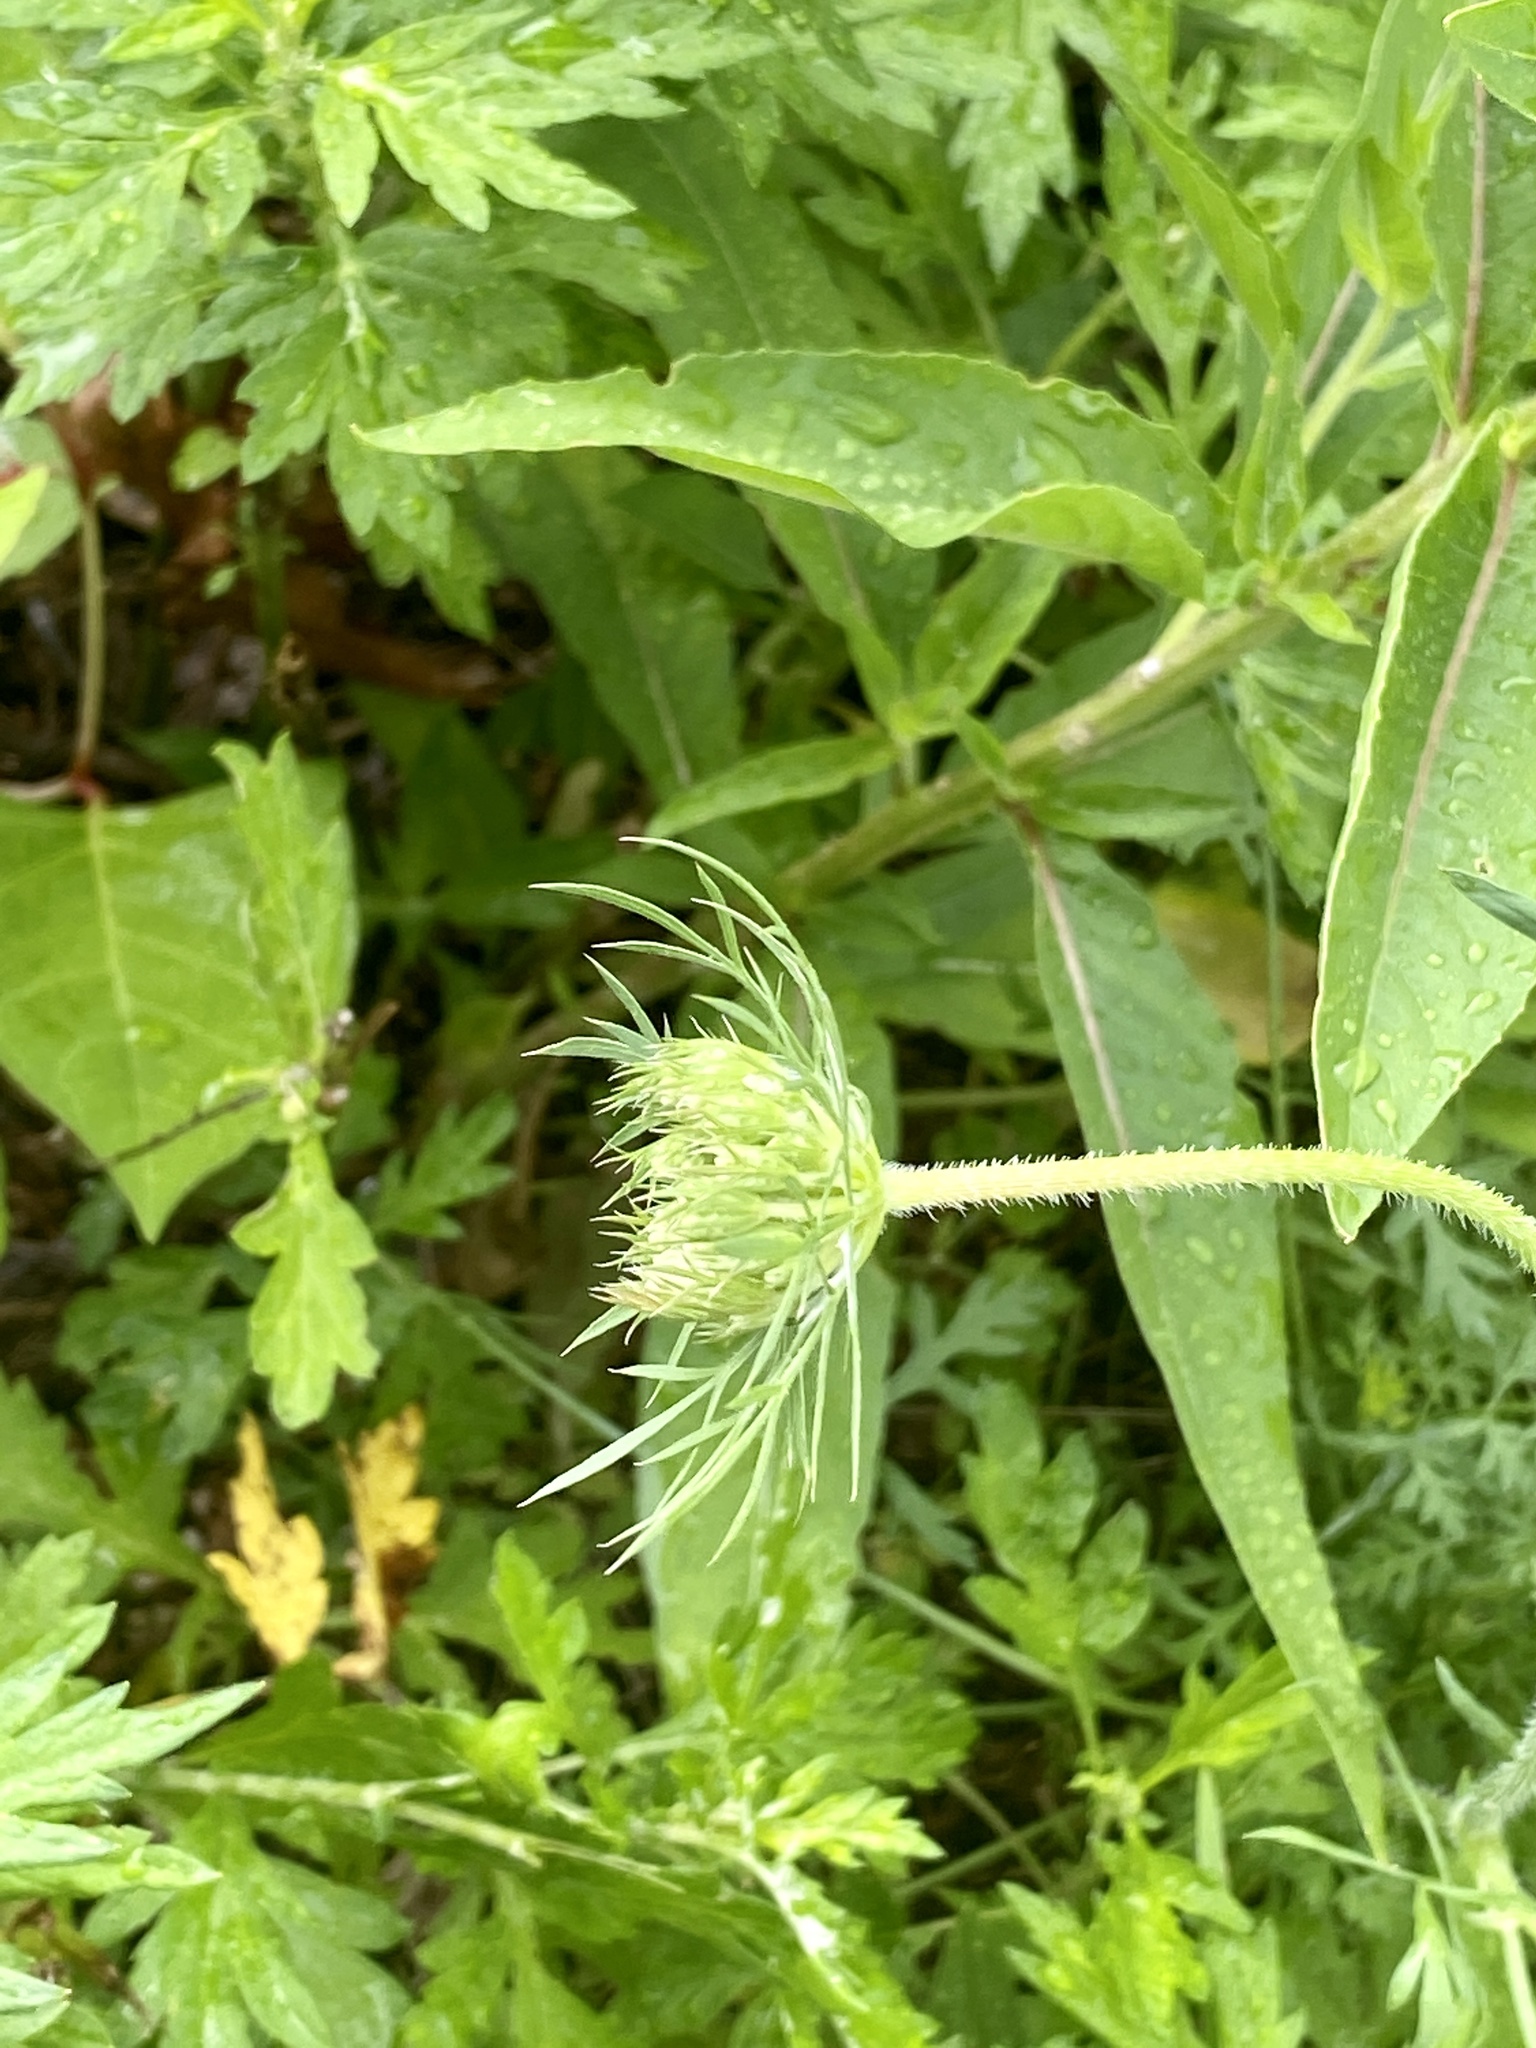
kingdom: Plantae
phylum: Tracheophyta
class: Magnoliopsida
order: Apiales
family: Apiaceae
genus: Daucus
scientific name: Daucus carota
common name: Wild carrot
